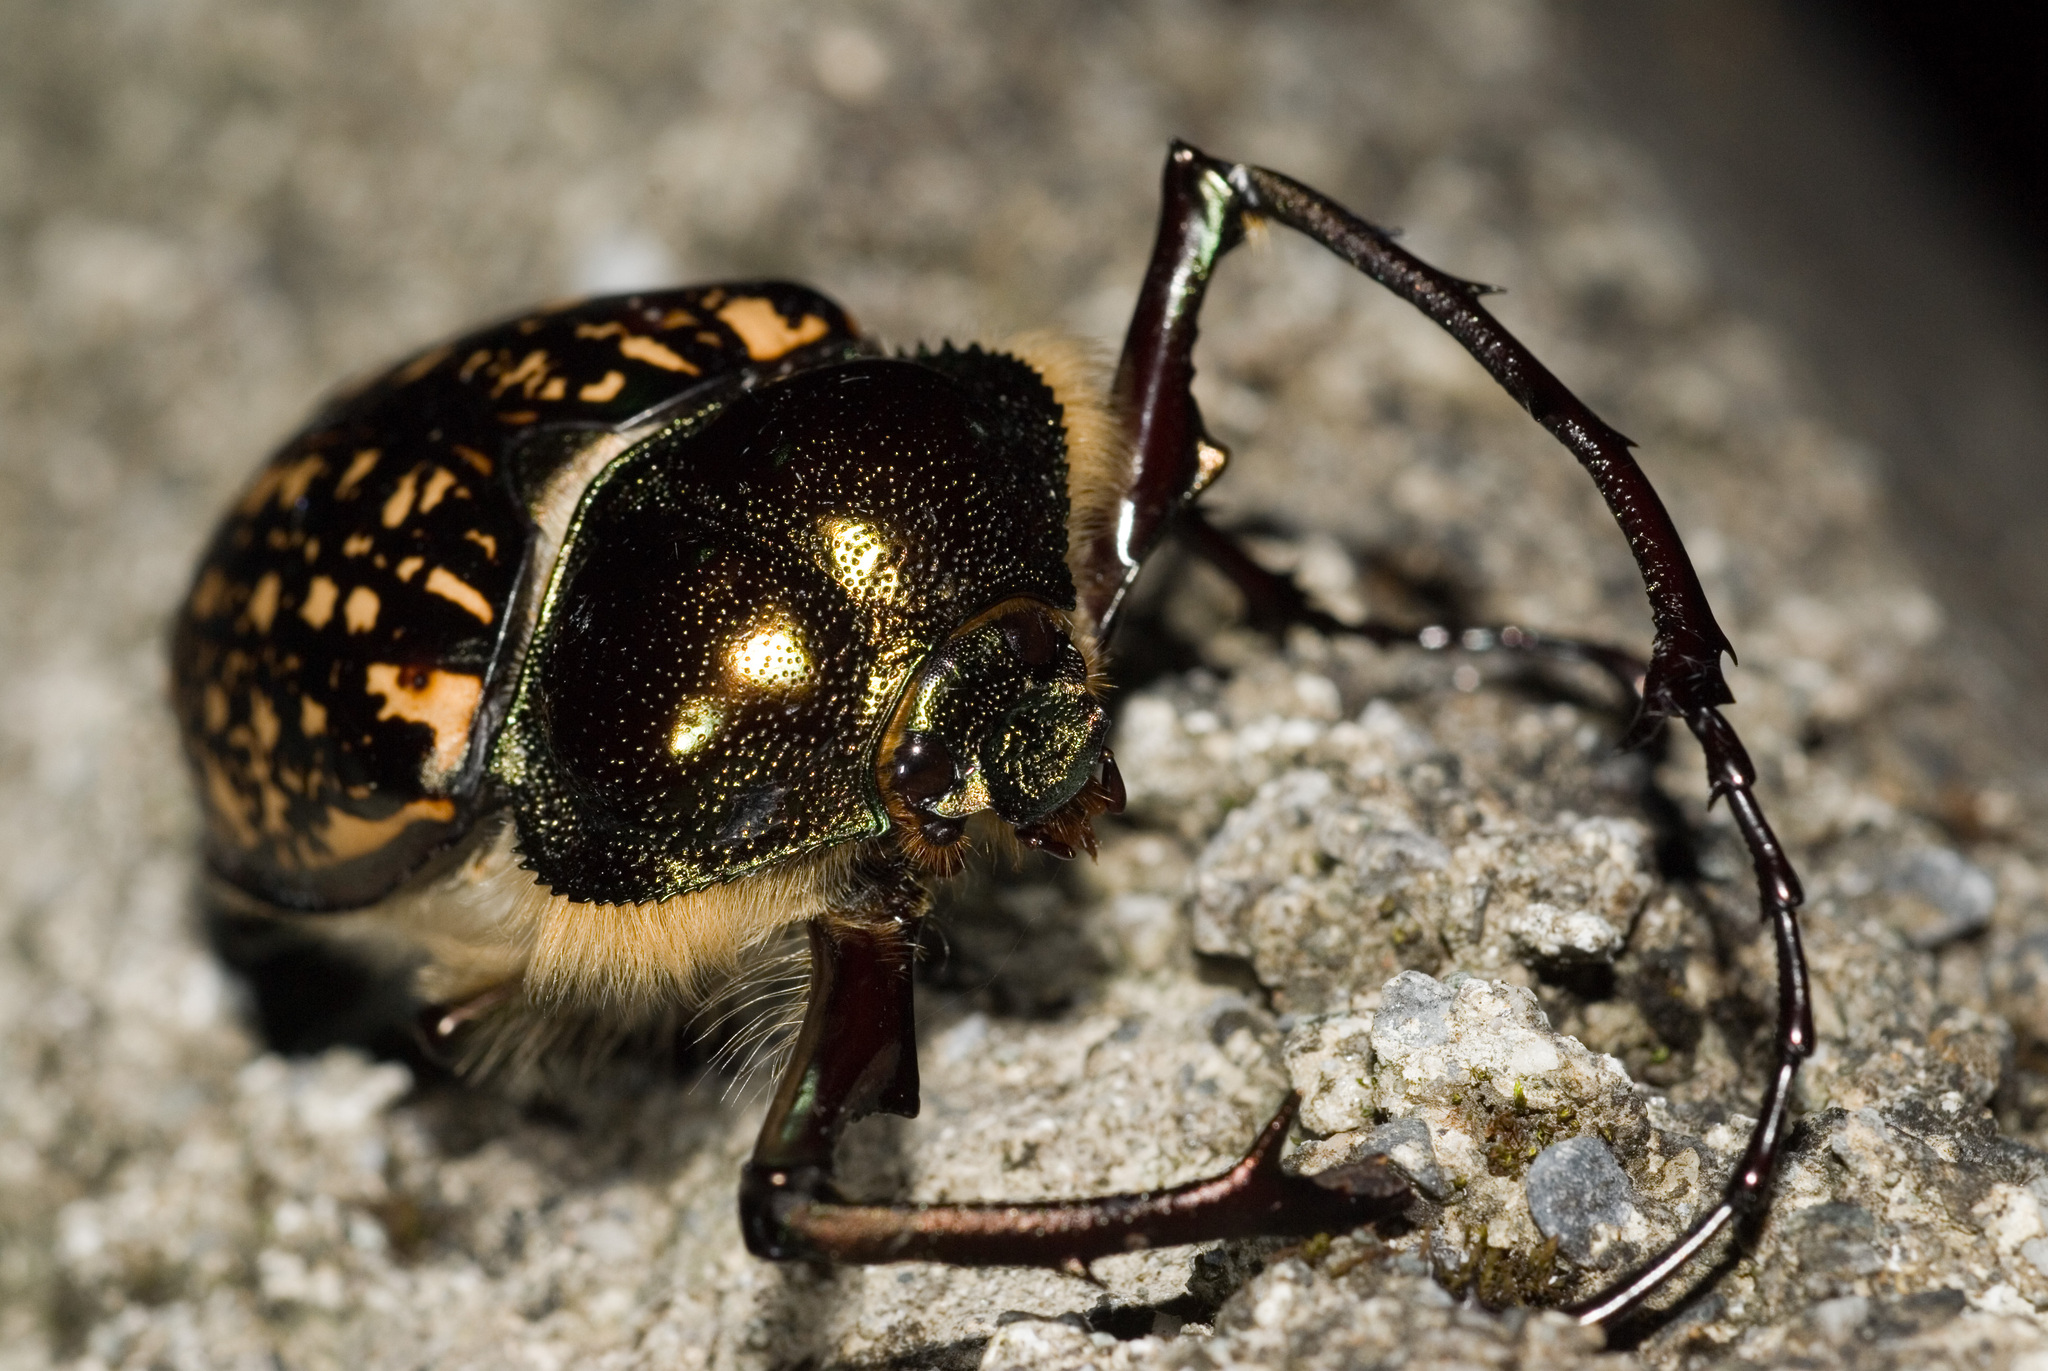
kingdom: Animalia
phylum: Arthropoda
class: Insecta
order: Coleoptera
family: Scarabaeidae
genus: Cheirotonus
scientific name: Cheirotonus formosanus
